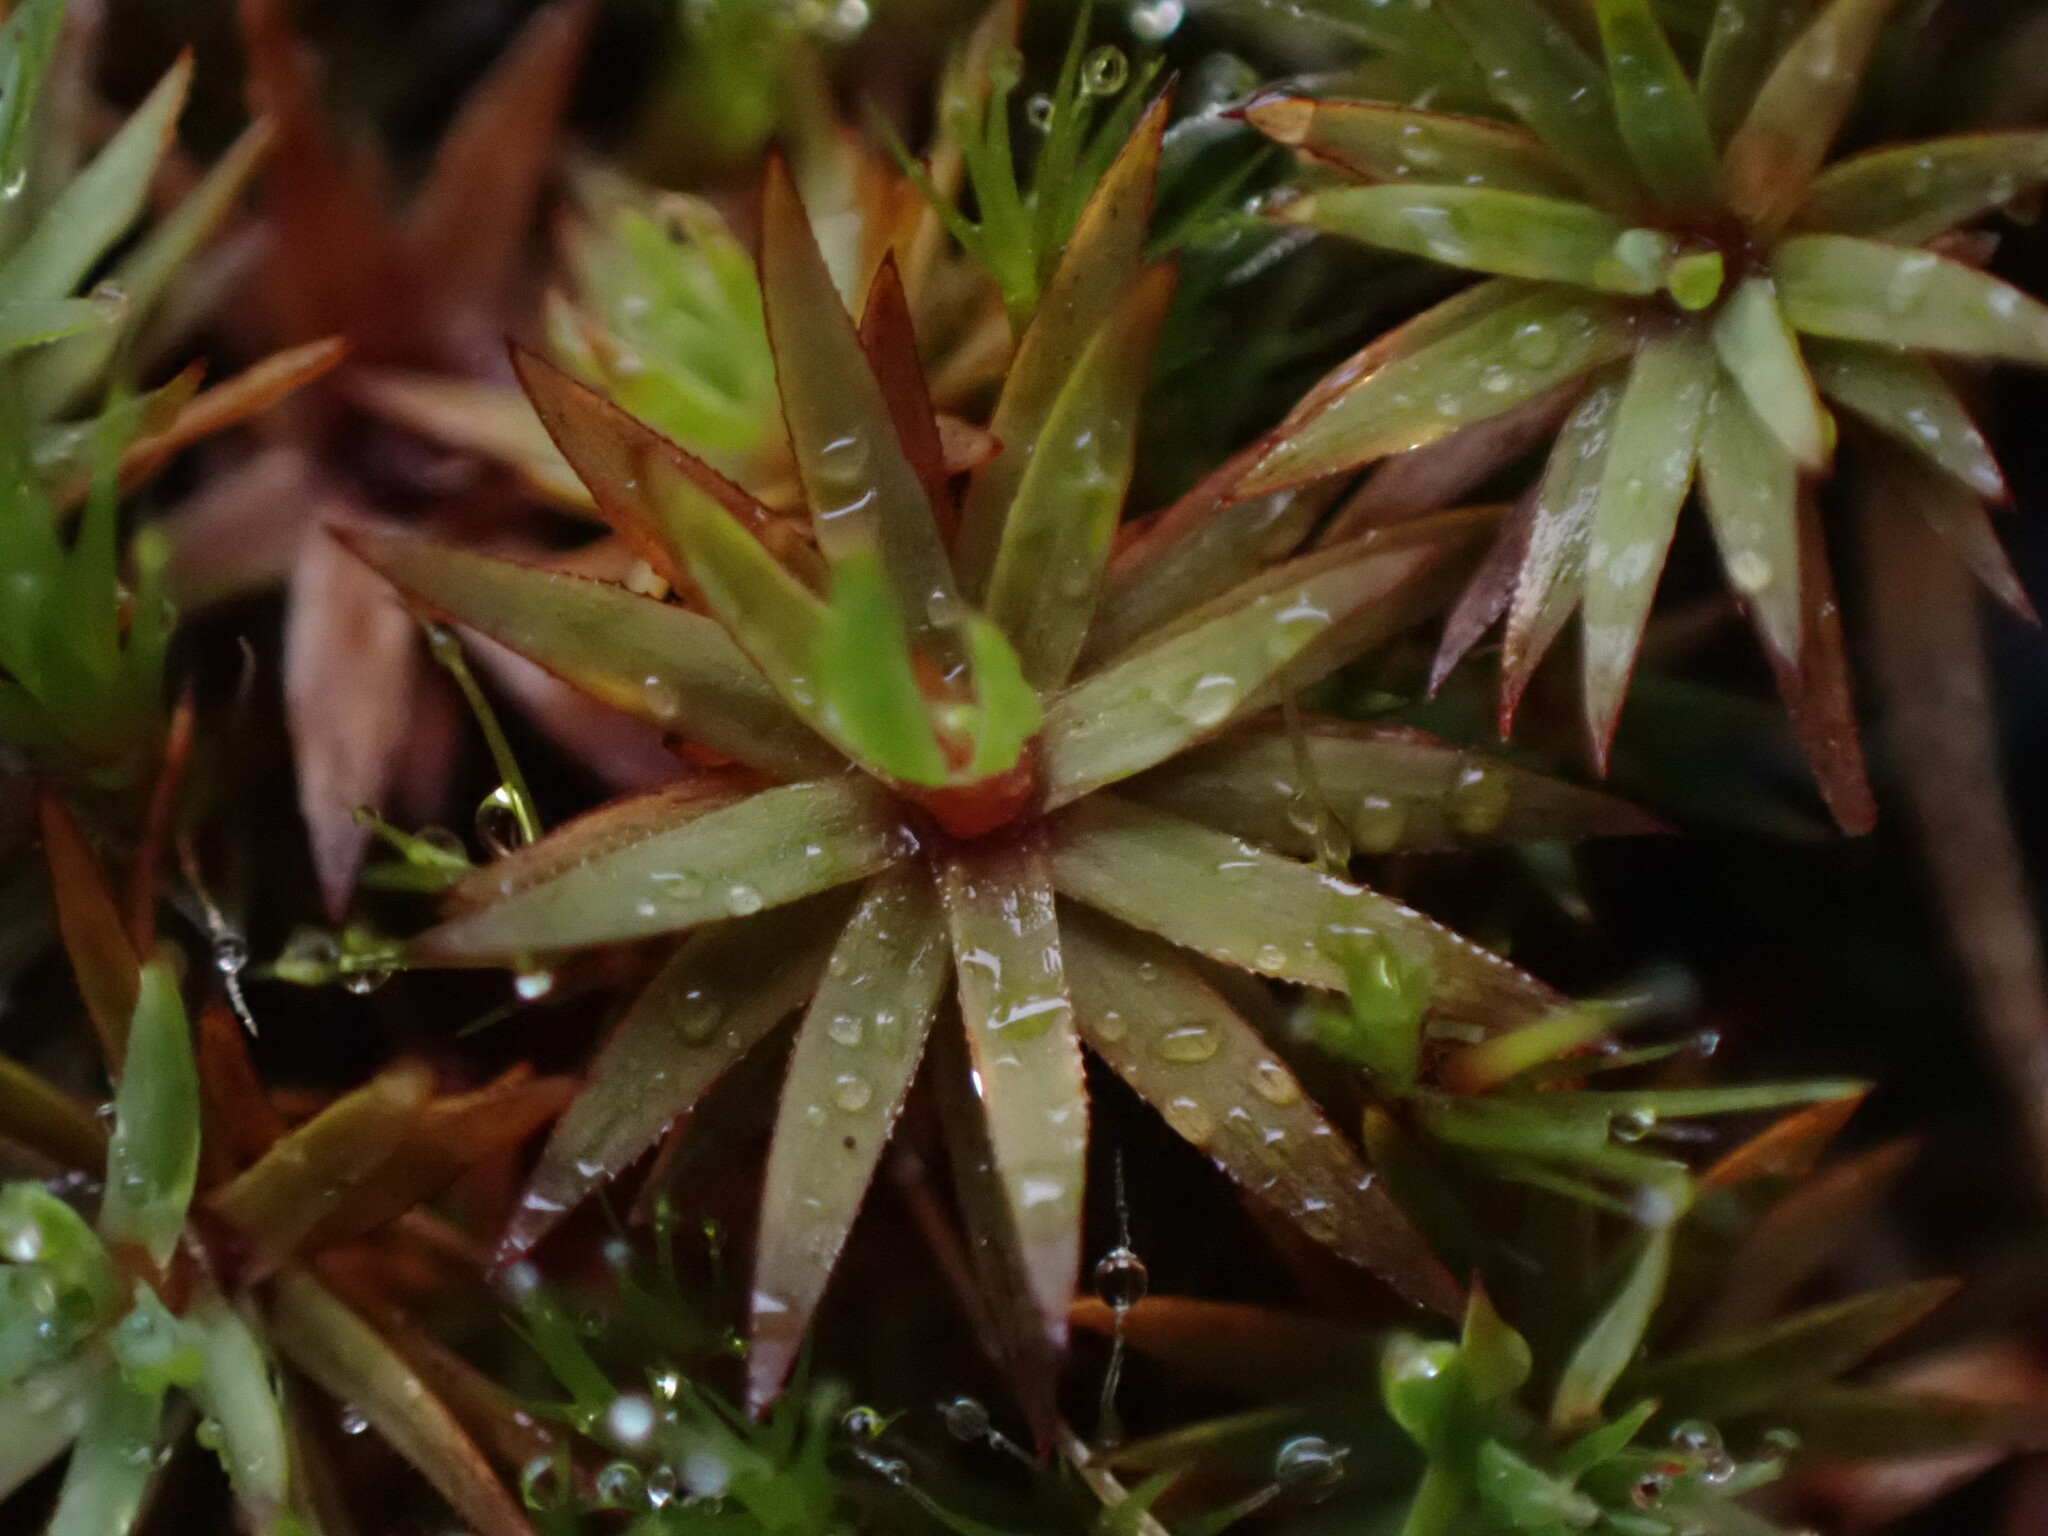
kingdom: Plantae
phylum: Bryophyta
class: Polytrichopsida
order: Polytrichales
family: Polytrichaceae
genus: Pogonatum
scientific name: Pogonatum urnigerum
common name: Urn hair moss
